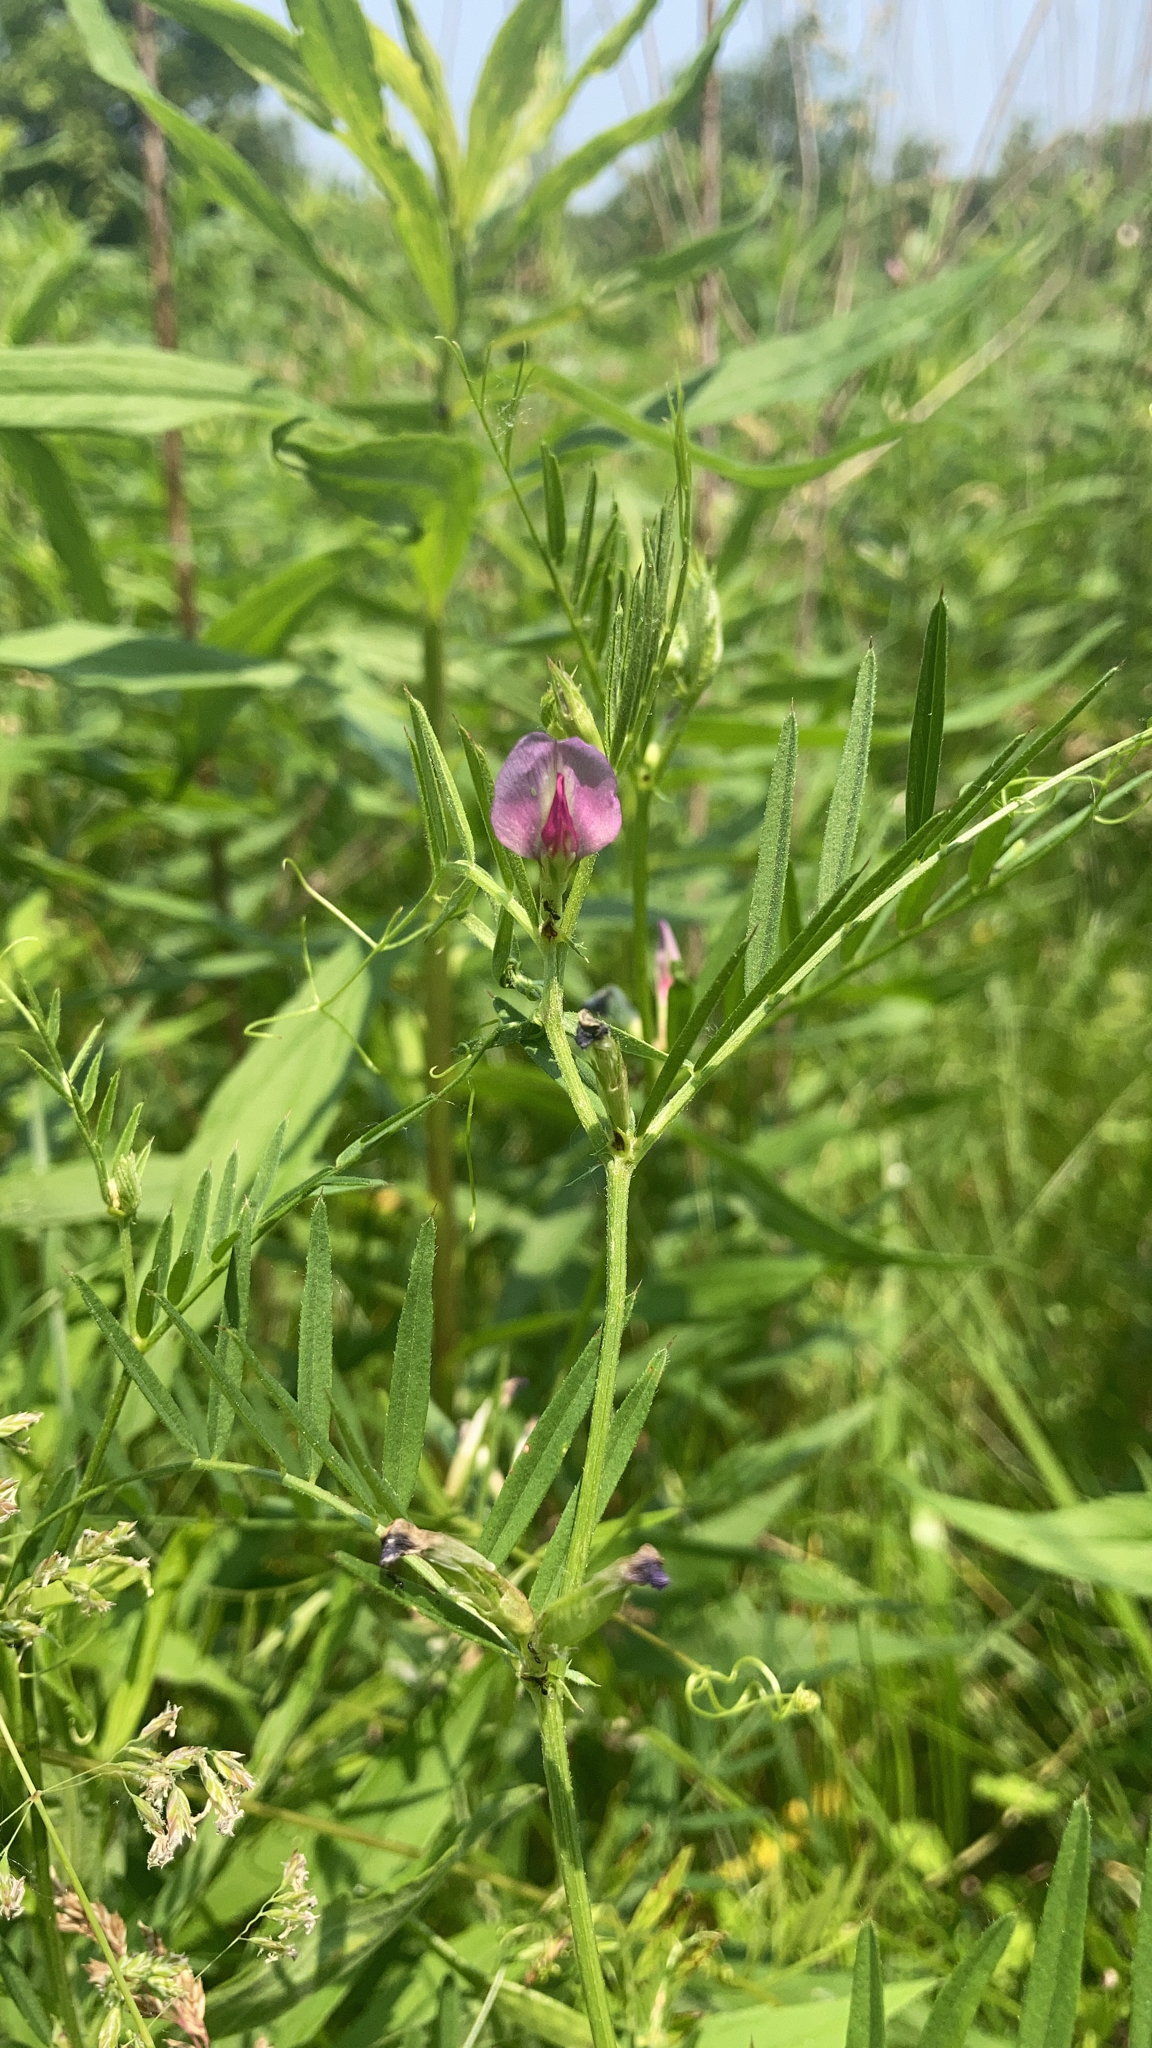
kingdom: Plantae
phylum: Tracheophyta
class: Magnoliopsida
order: Fabales
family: Fabaceae
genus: Vicia
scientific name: Vicia sativa
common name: Garden vetch
